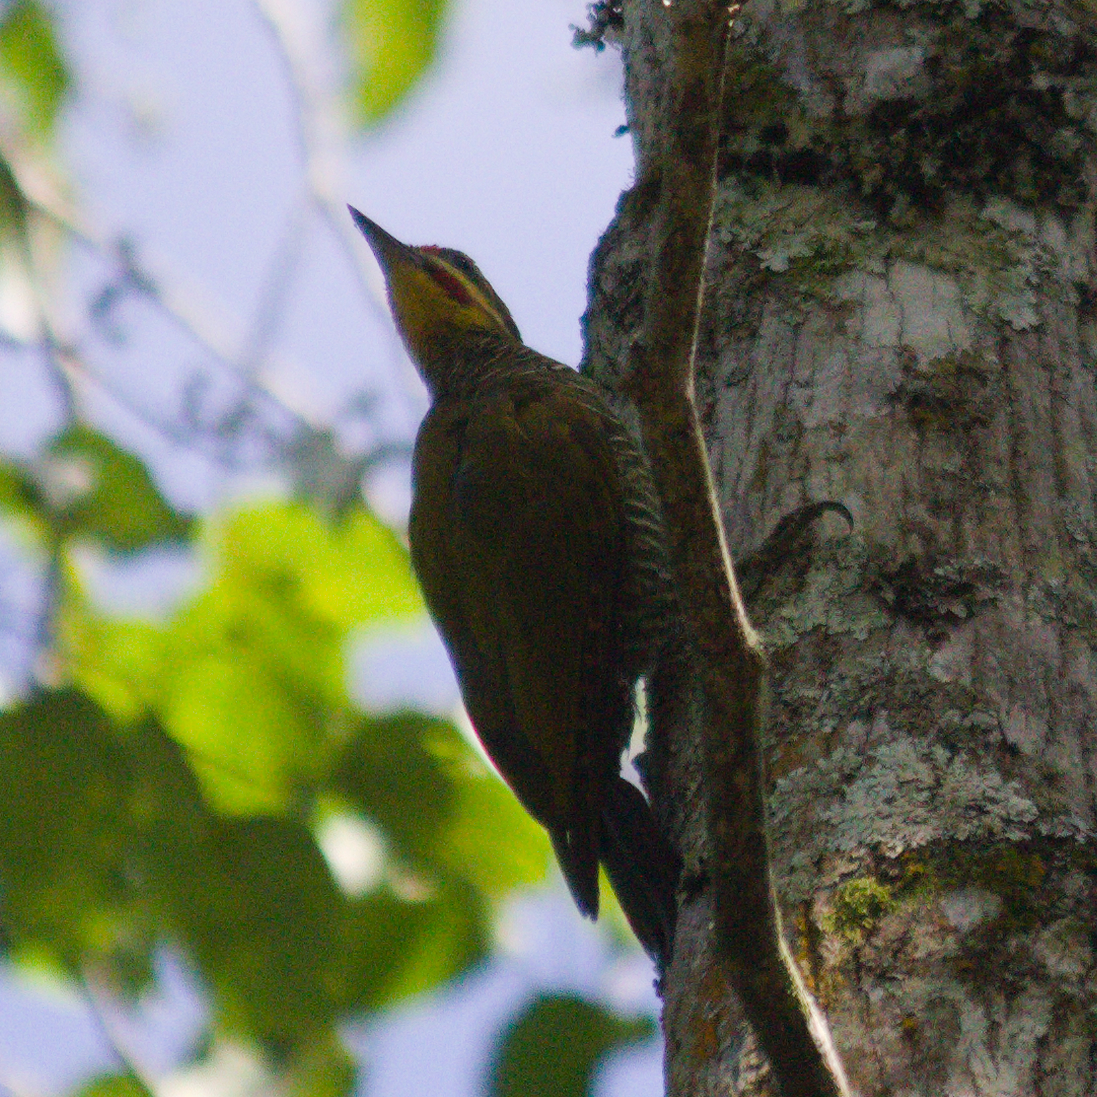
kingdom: Animalia
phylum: Chordata
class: Aves
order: Piciformes
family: Picidae
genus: Piculus
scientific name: Piculus aurulentus
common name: Yellow-browed woodpecker
